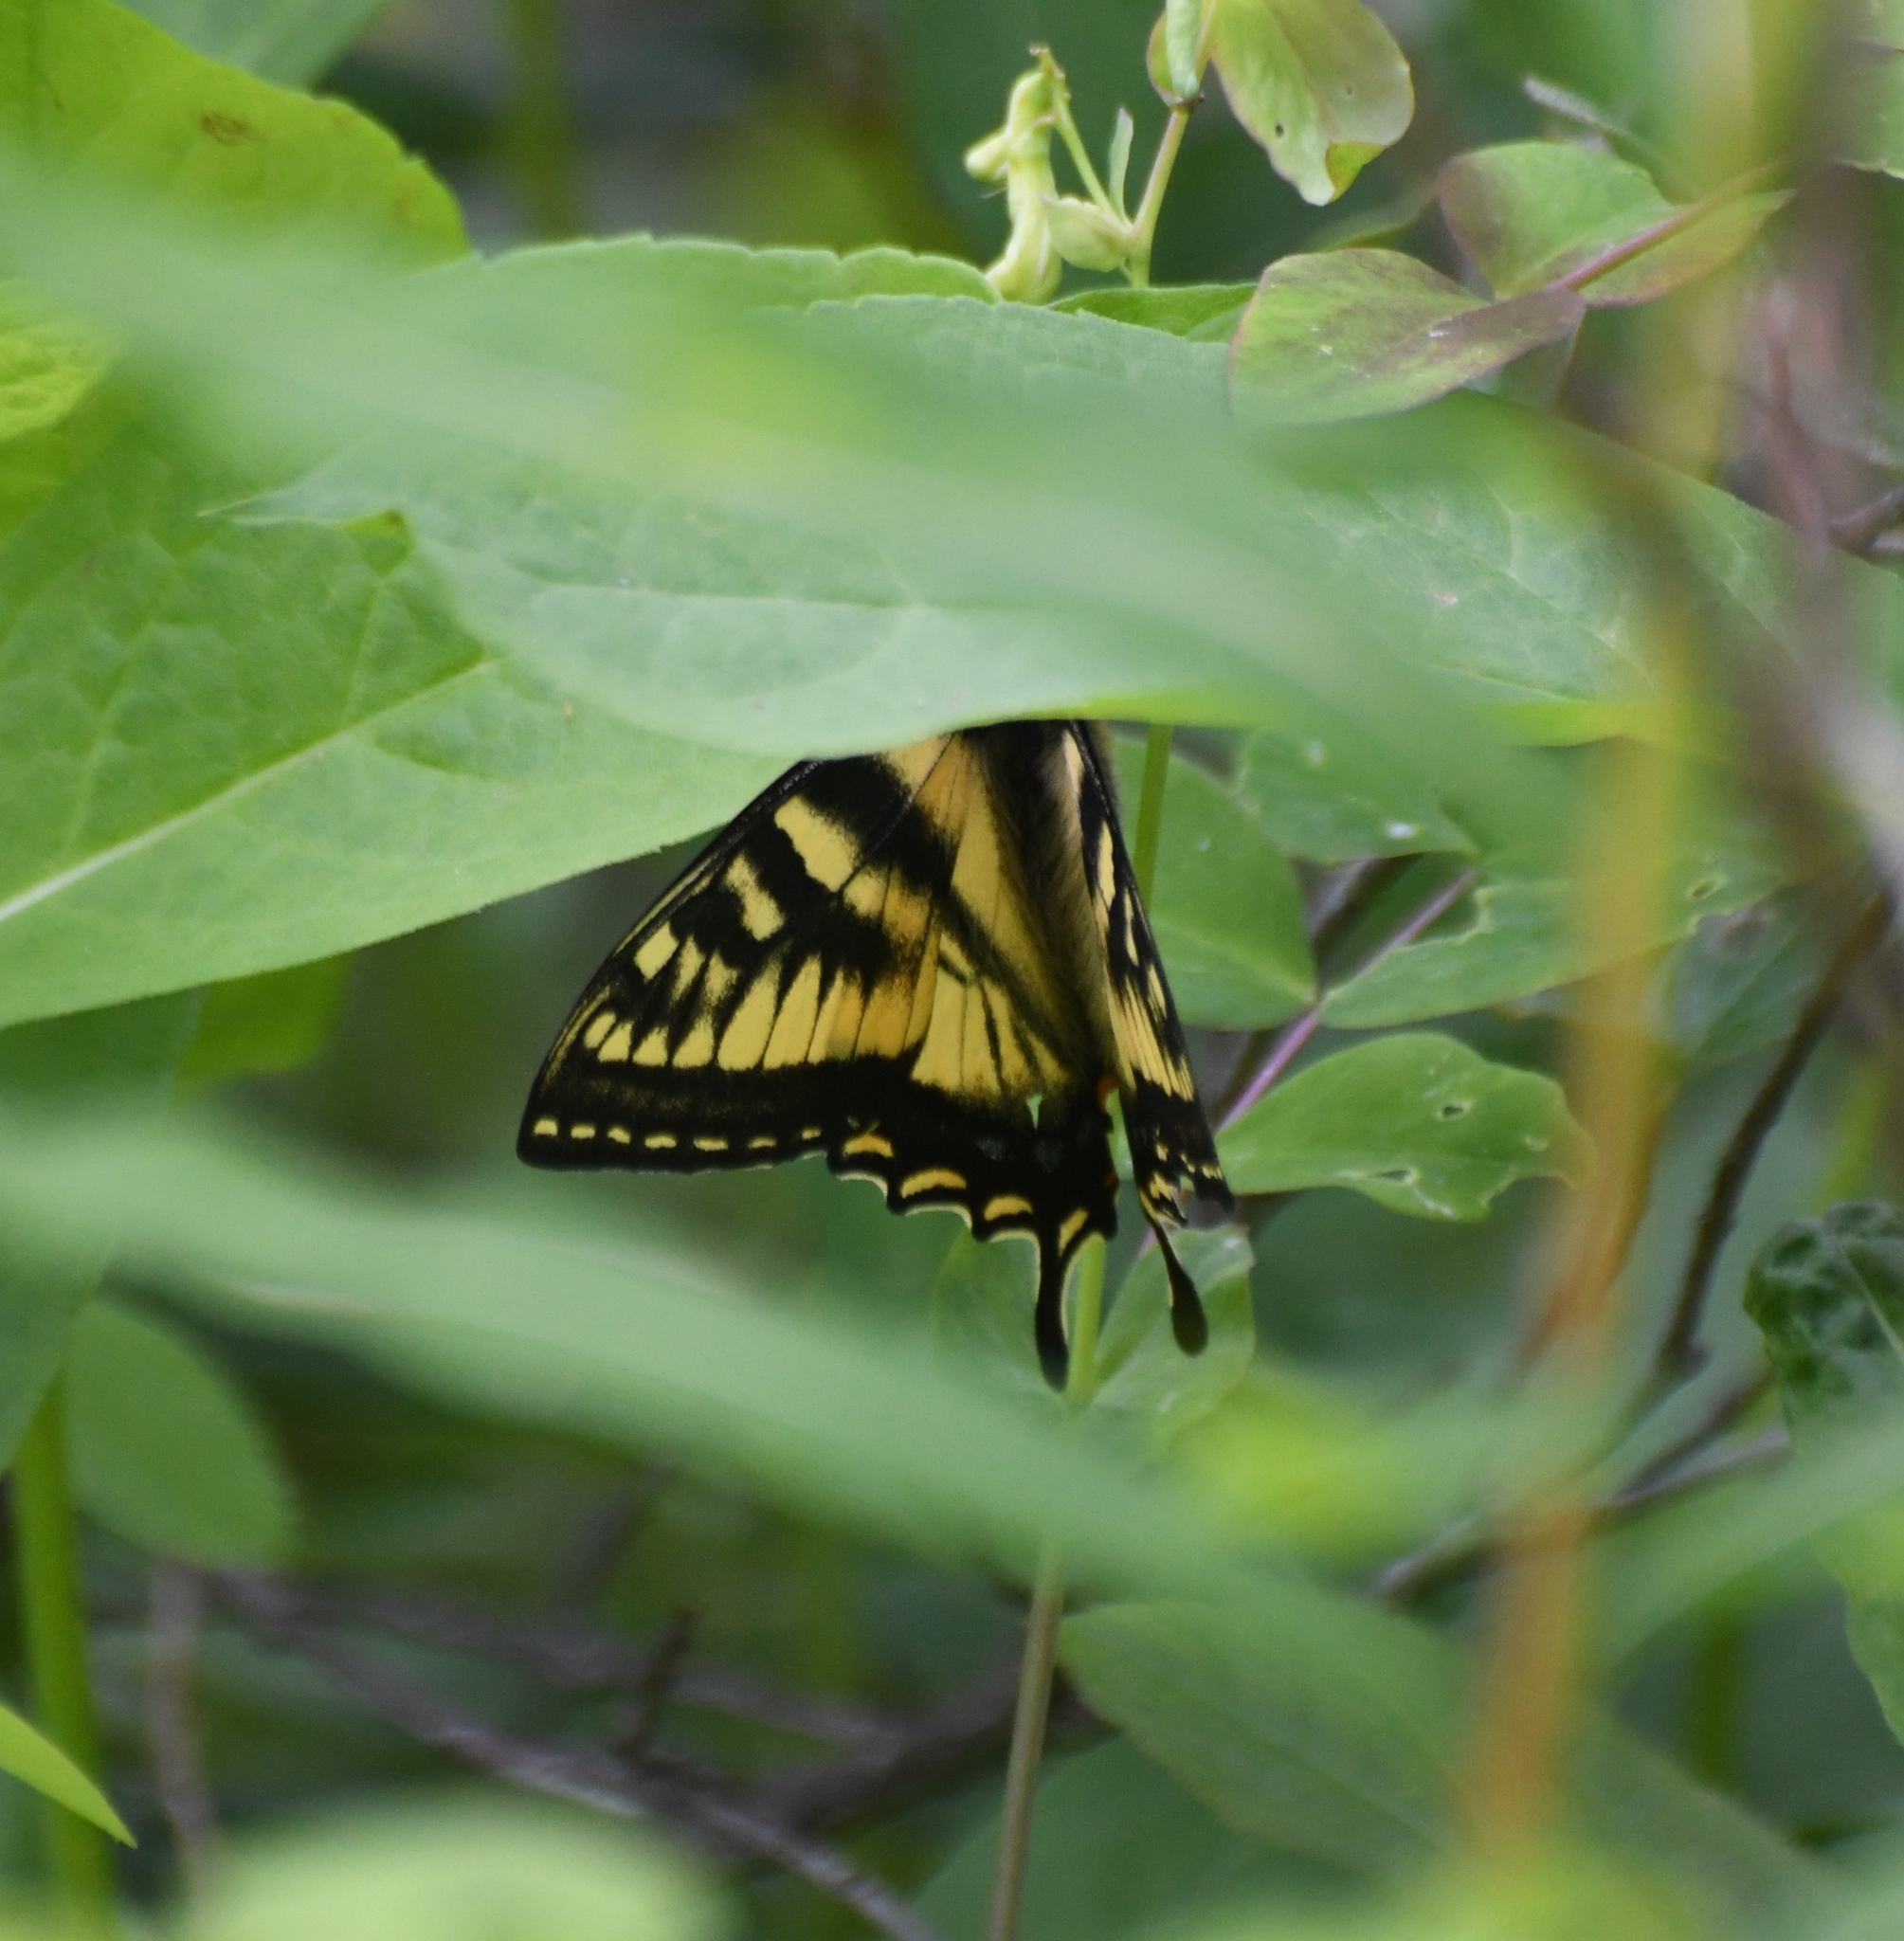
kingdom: Animalia
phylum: Arthropoda
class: Insecta
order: Lepidoptera
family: Papilionidae
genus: Papilio
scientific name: Papilio canadensis
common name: Canadian tiger swallowtail
